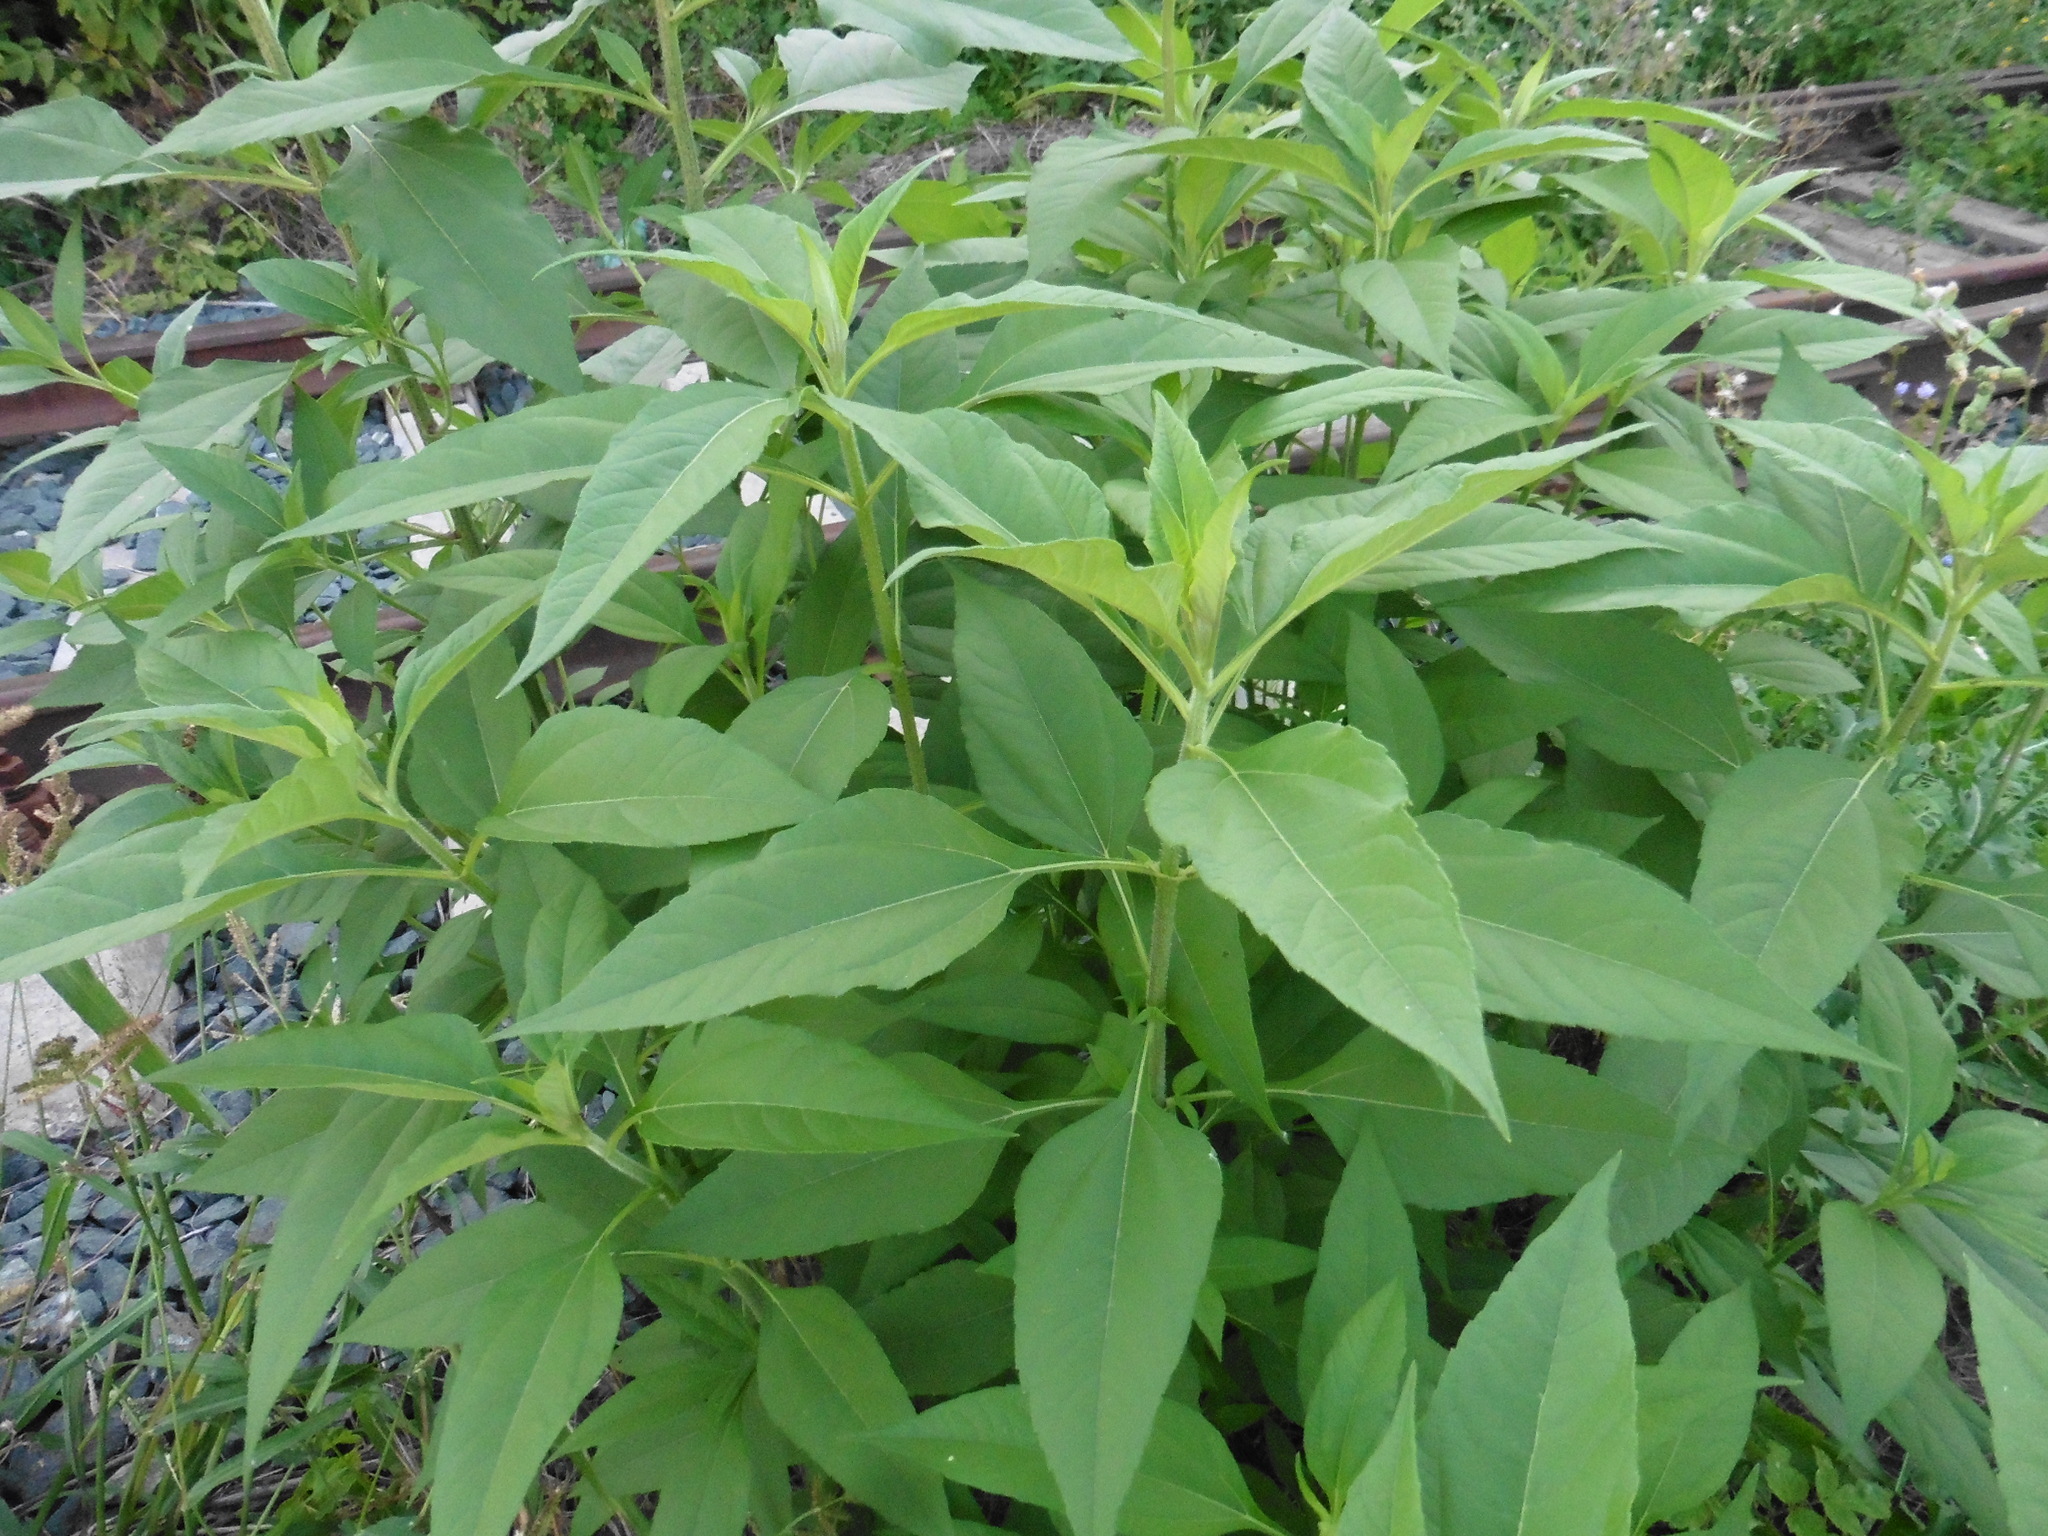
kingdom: Plantae
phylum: Tracheophyta
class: Magnoliopsida
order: Asterales
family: Asteraceae
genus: Helianthus
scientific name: Helianthus tuberosus
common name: Jerusalem artichoke
